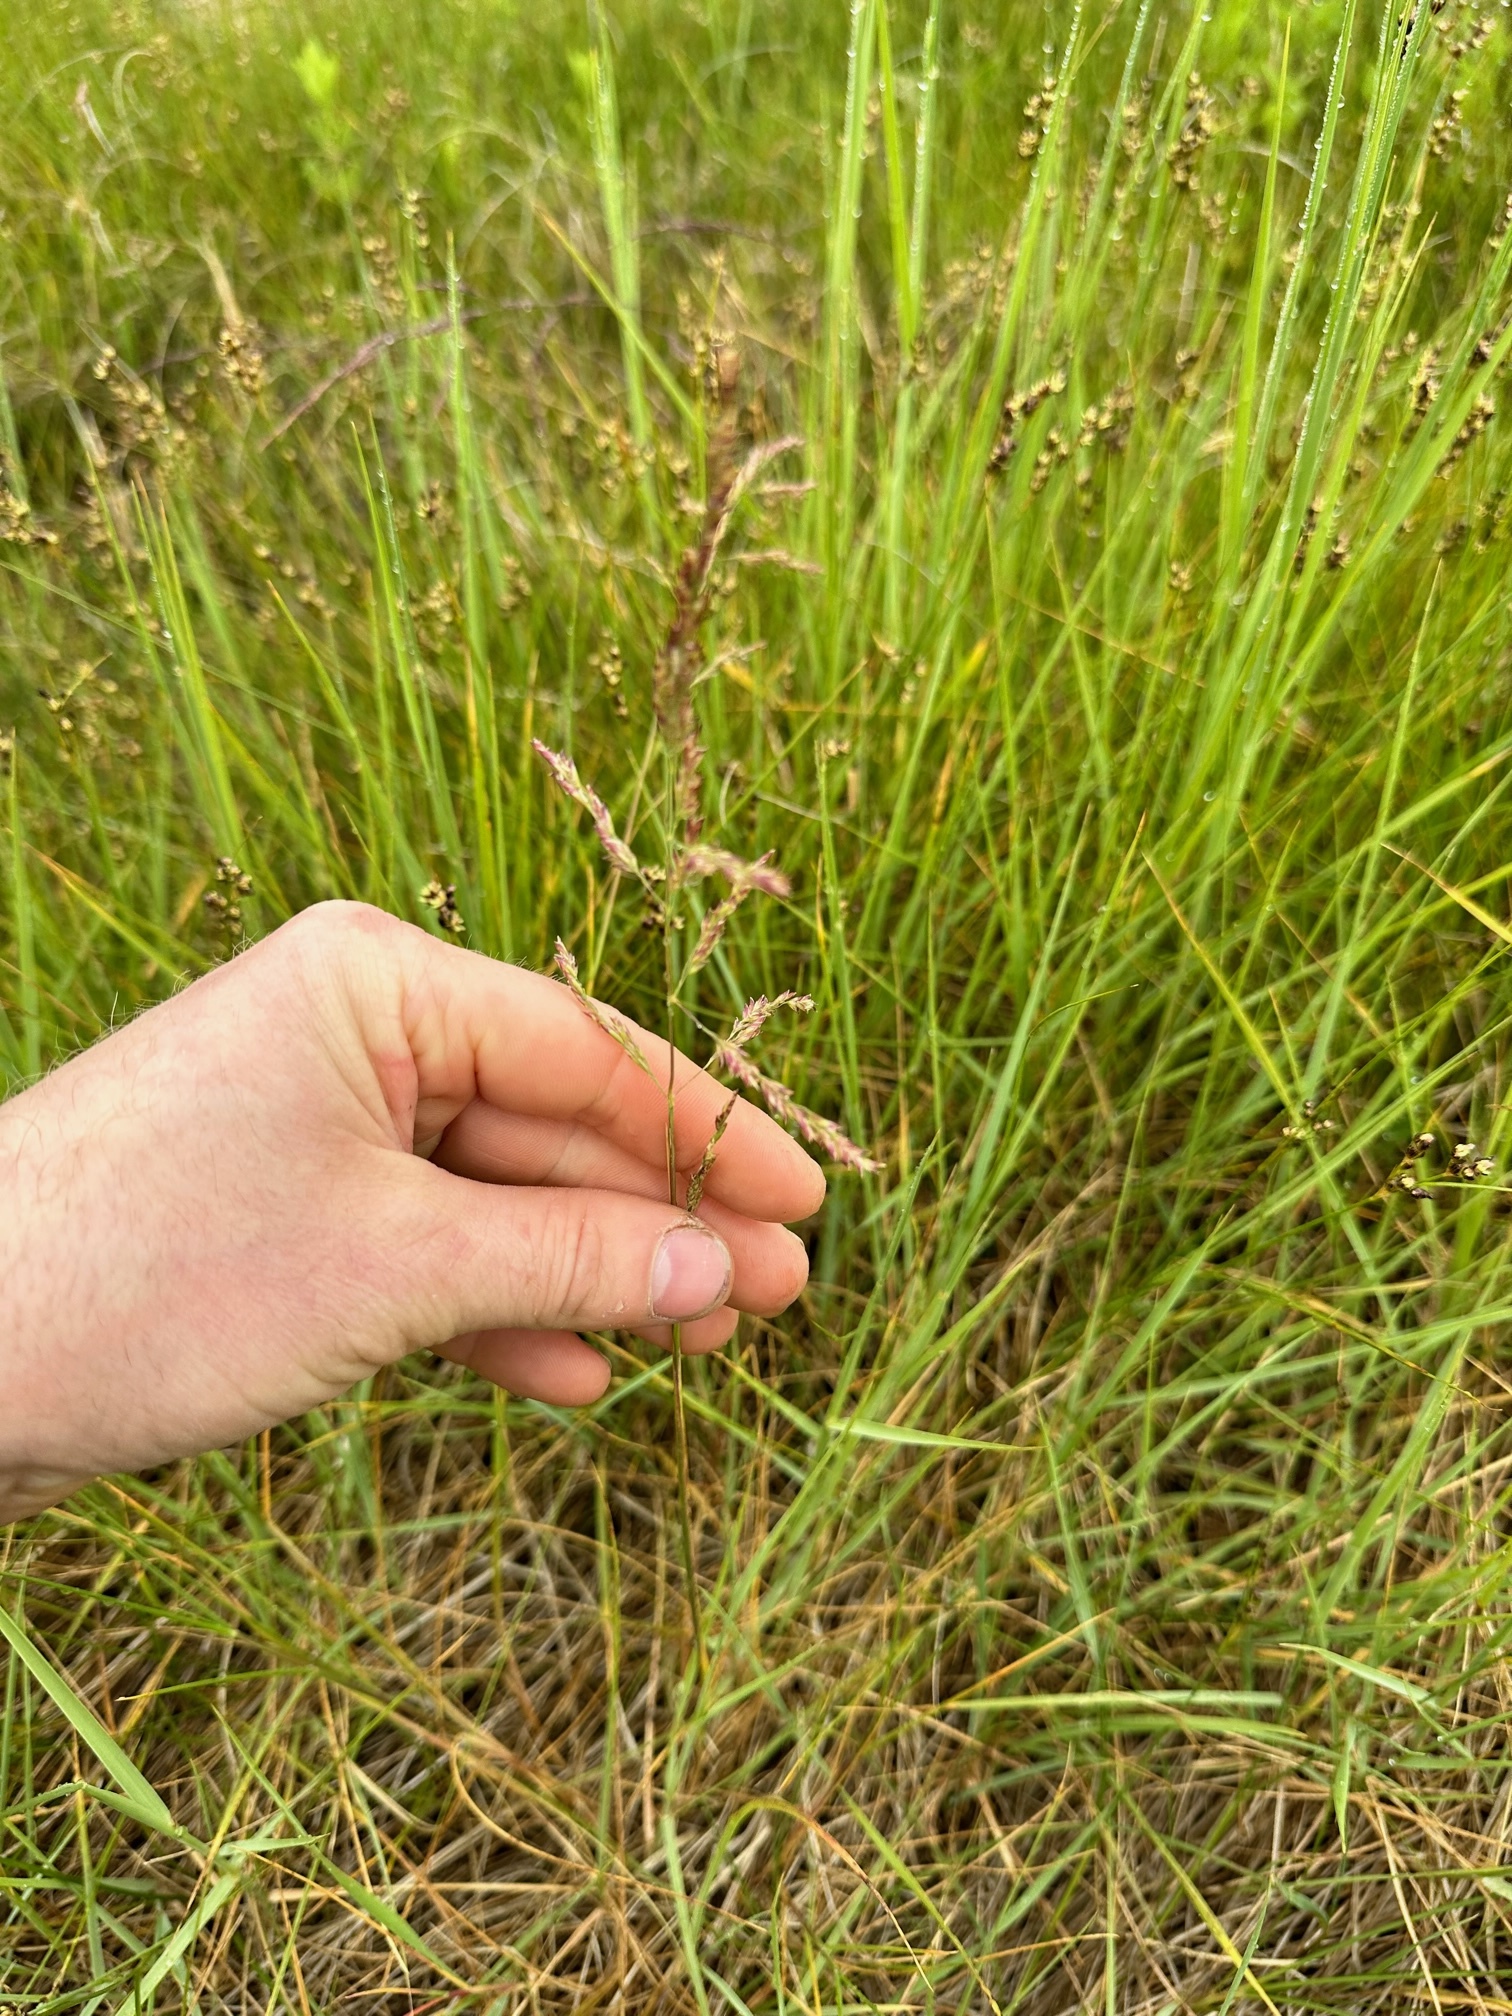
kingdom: Plantae
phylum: Tracheophyta
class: Liliopsida
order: Poales
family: Poaceae
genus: Sporobolus
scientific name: Sporobolus pumilus
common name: Highwater grass
